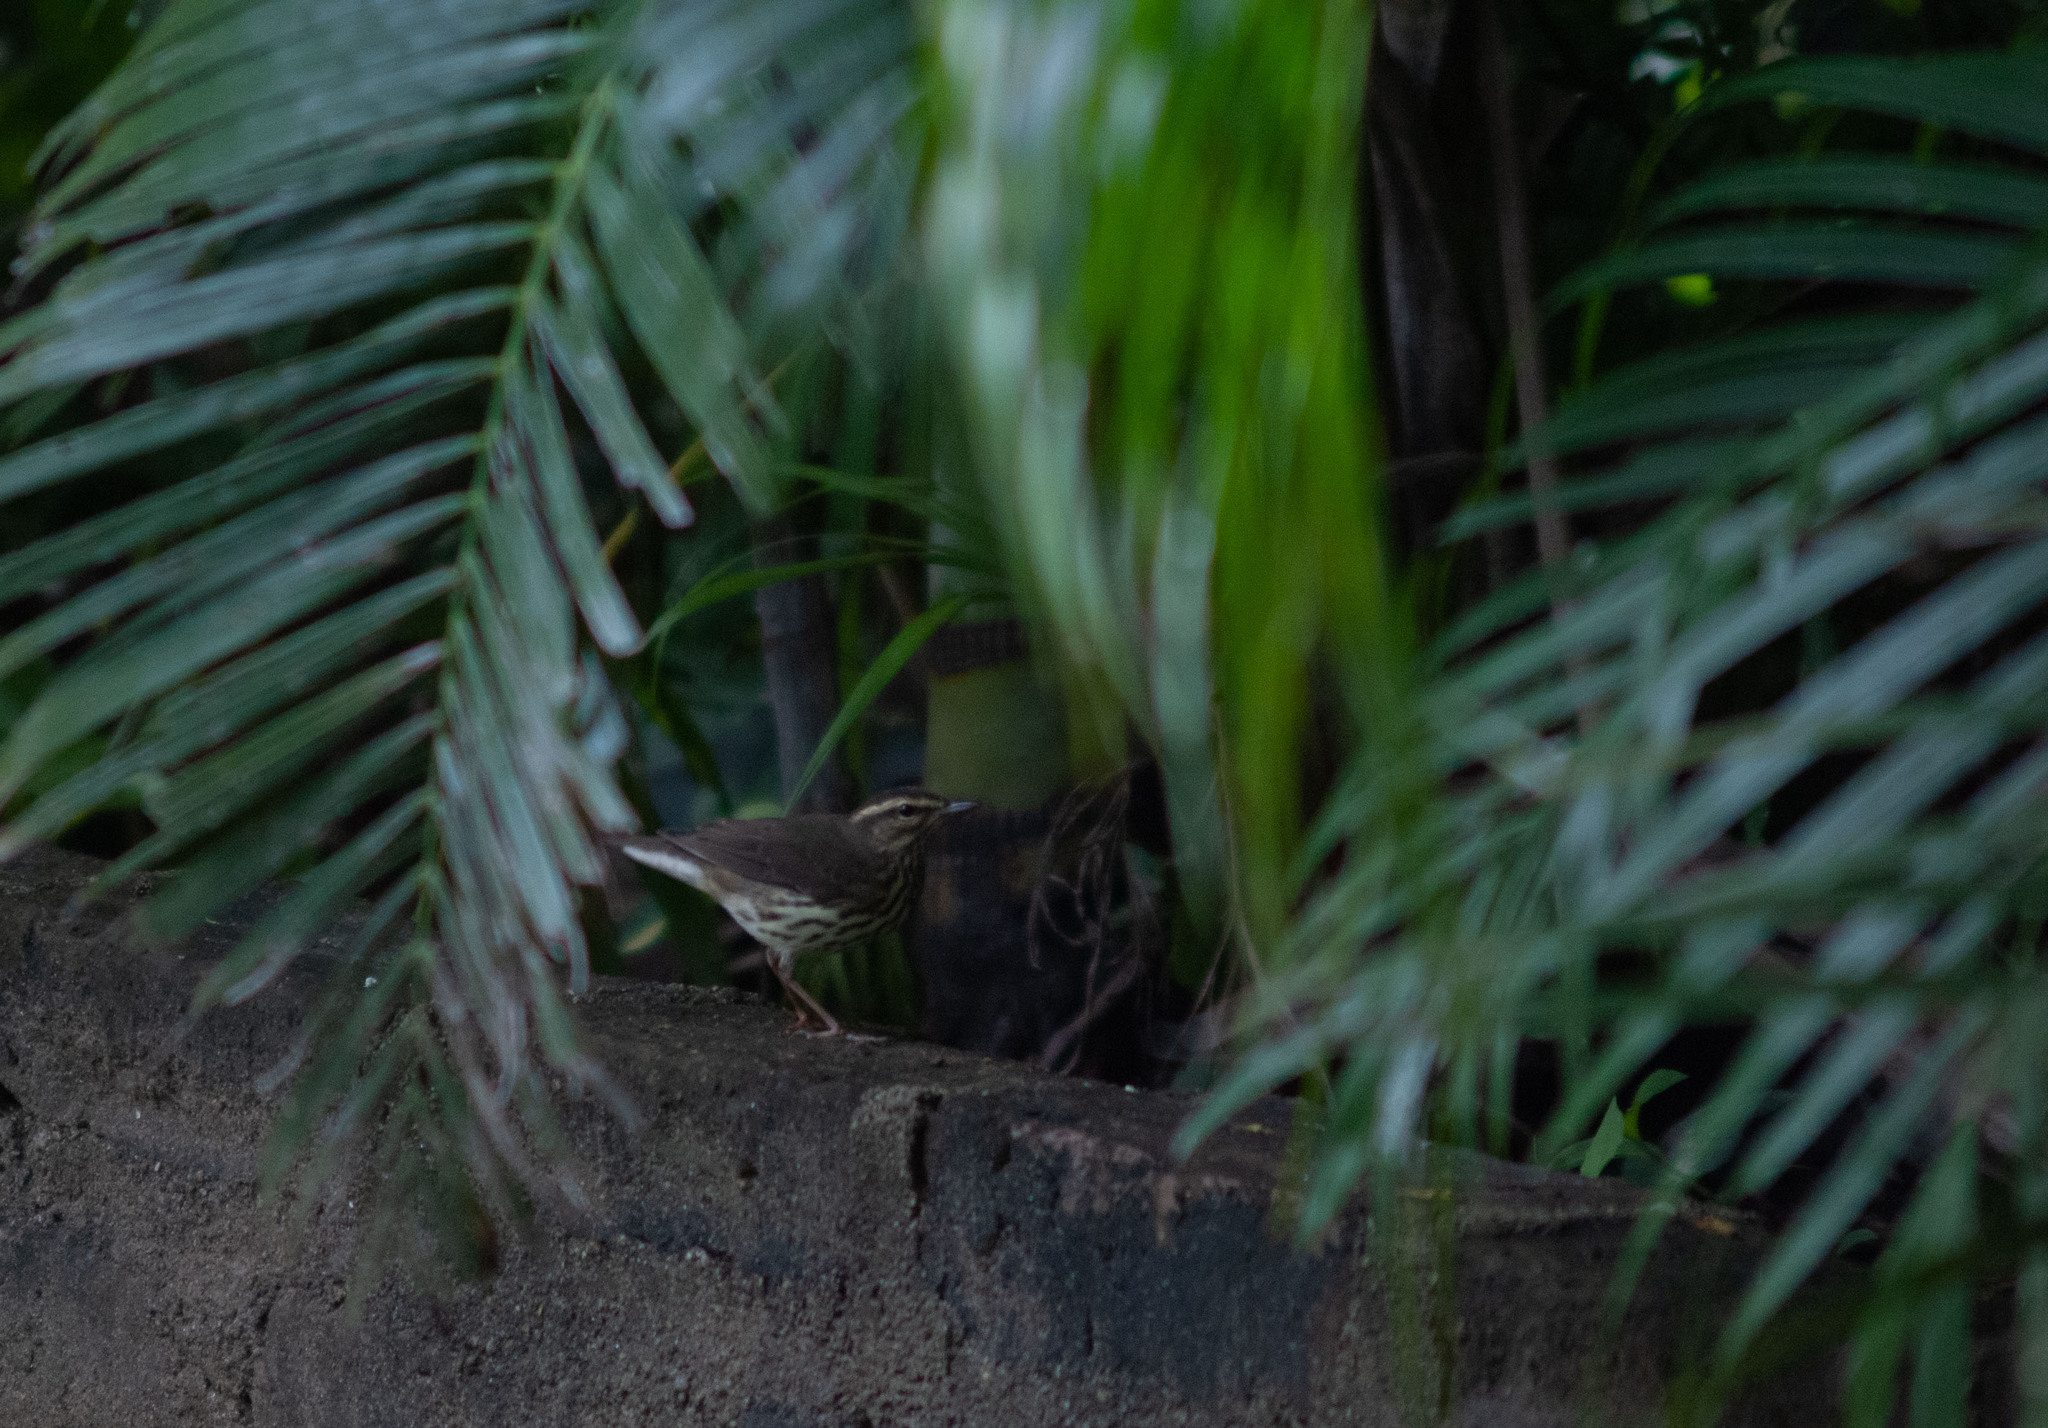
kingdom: Animalia
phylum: Chordata
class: Aves
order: Passeriformes
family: Parulidae
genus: Parkesia
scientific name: Parkesia noveboracensis
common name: Northern waterthrush
